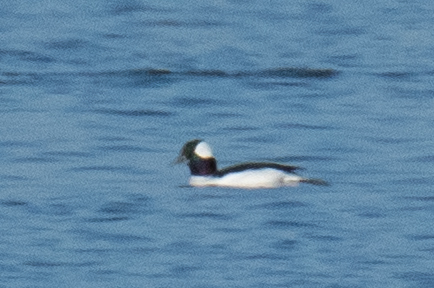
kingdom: Animalia
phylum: Chordata
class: Aves
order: Anseriformes
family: Anatidae
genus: Bucephala
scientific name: Bucephala albeola
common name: Bufflehead
